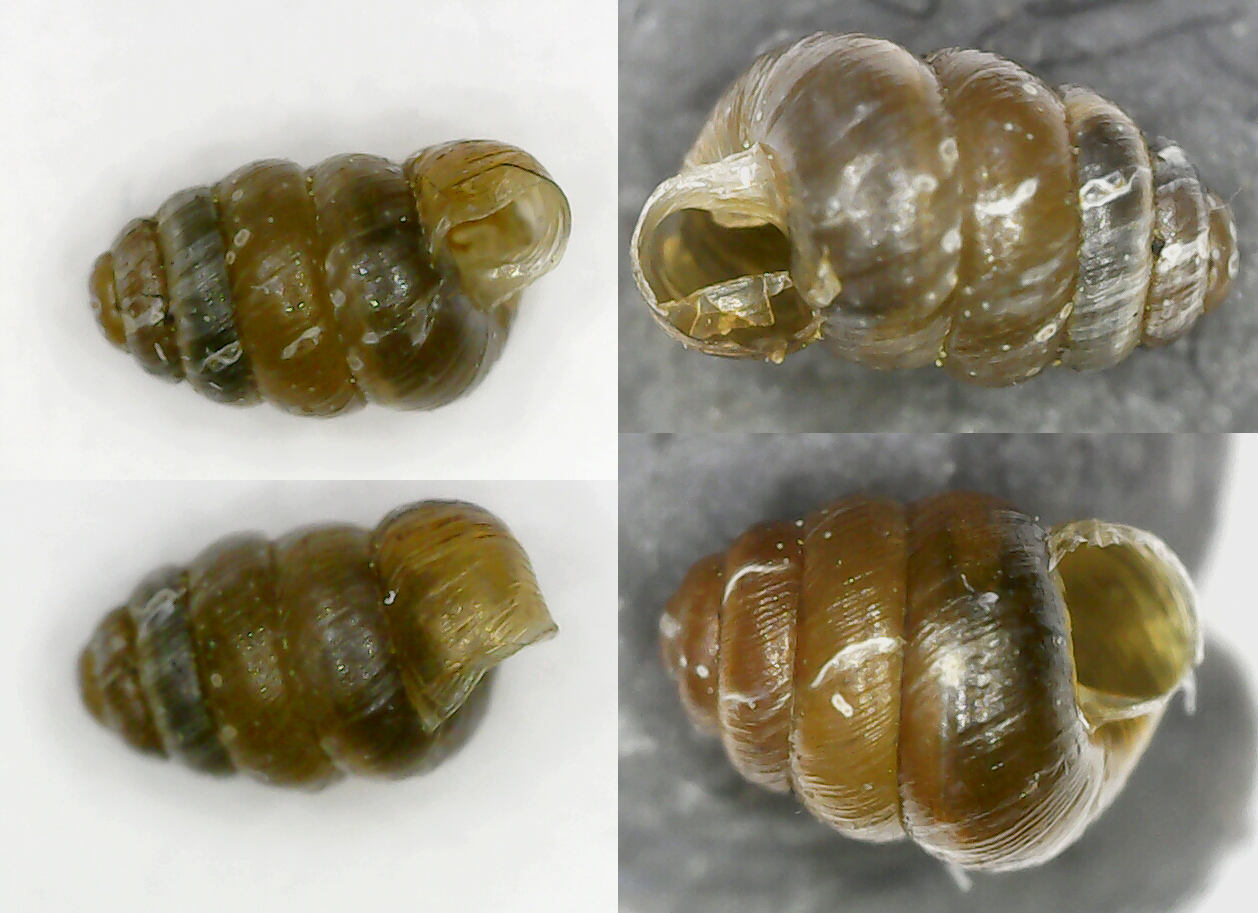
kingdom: Animalia
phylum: Mollusca
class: Gastropoda
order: Stylommatophora
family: Truncatellinidae
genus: Columella
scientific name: Columella edentula
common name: Toothless chrysalis snail
